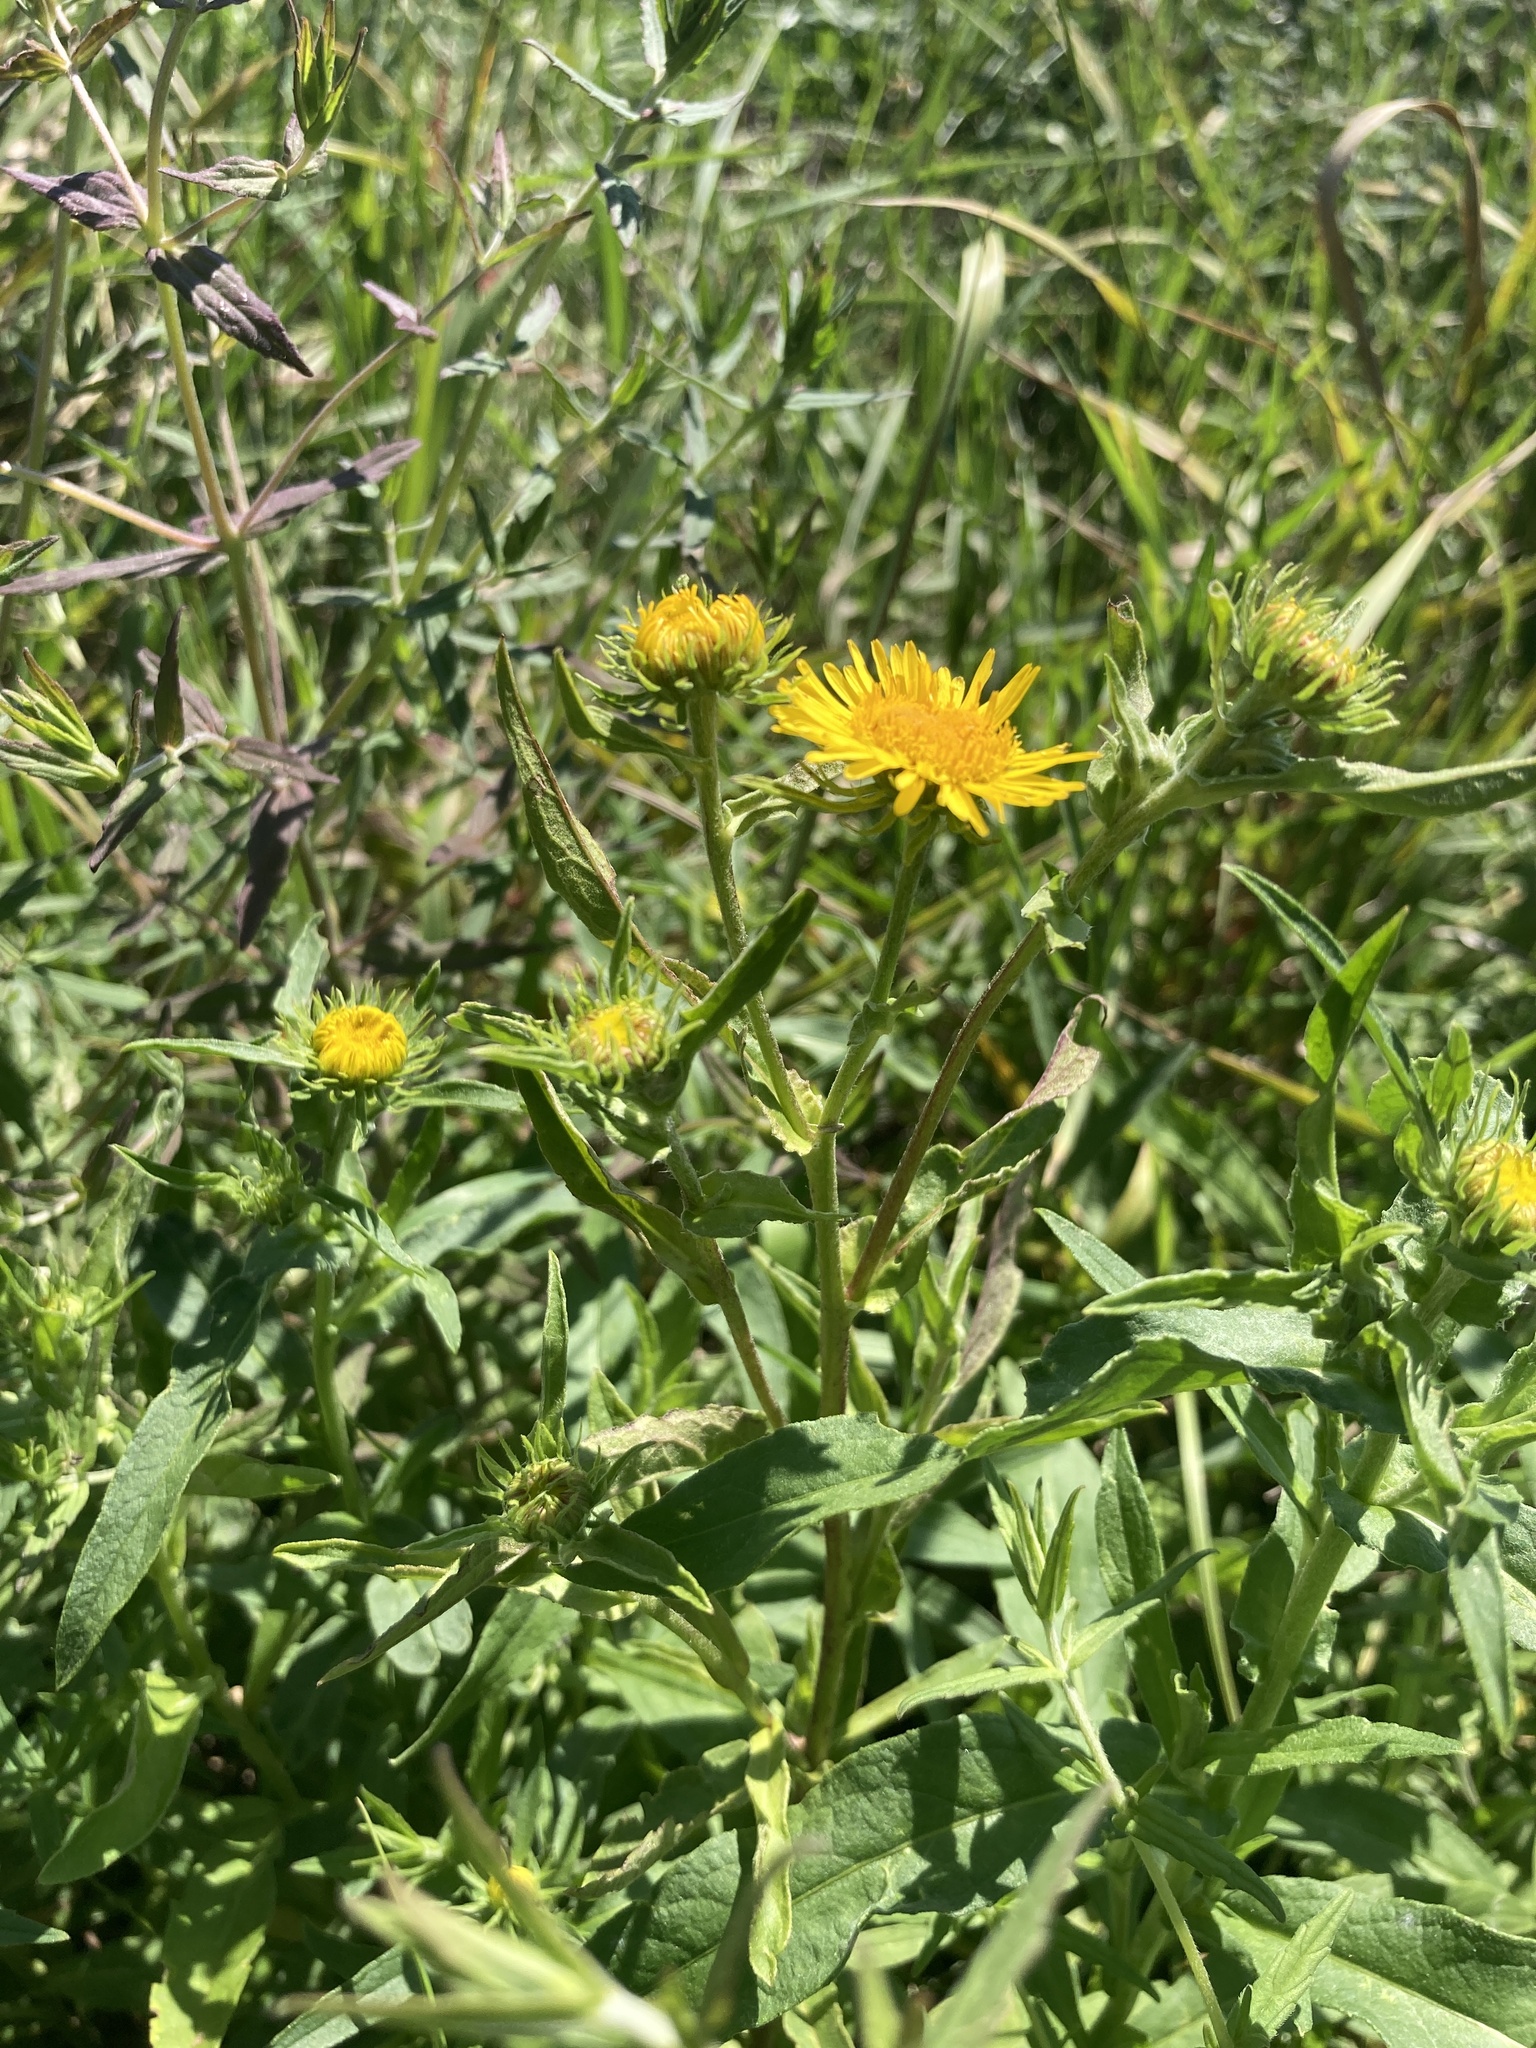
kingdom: Plantae
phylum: Tracheophyta
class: Magnoliopsida
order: Asterales
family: Asteraceae
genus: Pentanema
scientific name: Pentanema britannicum
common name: British elecampane
